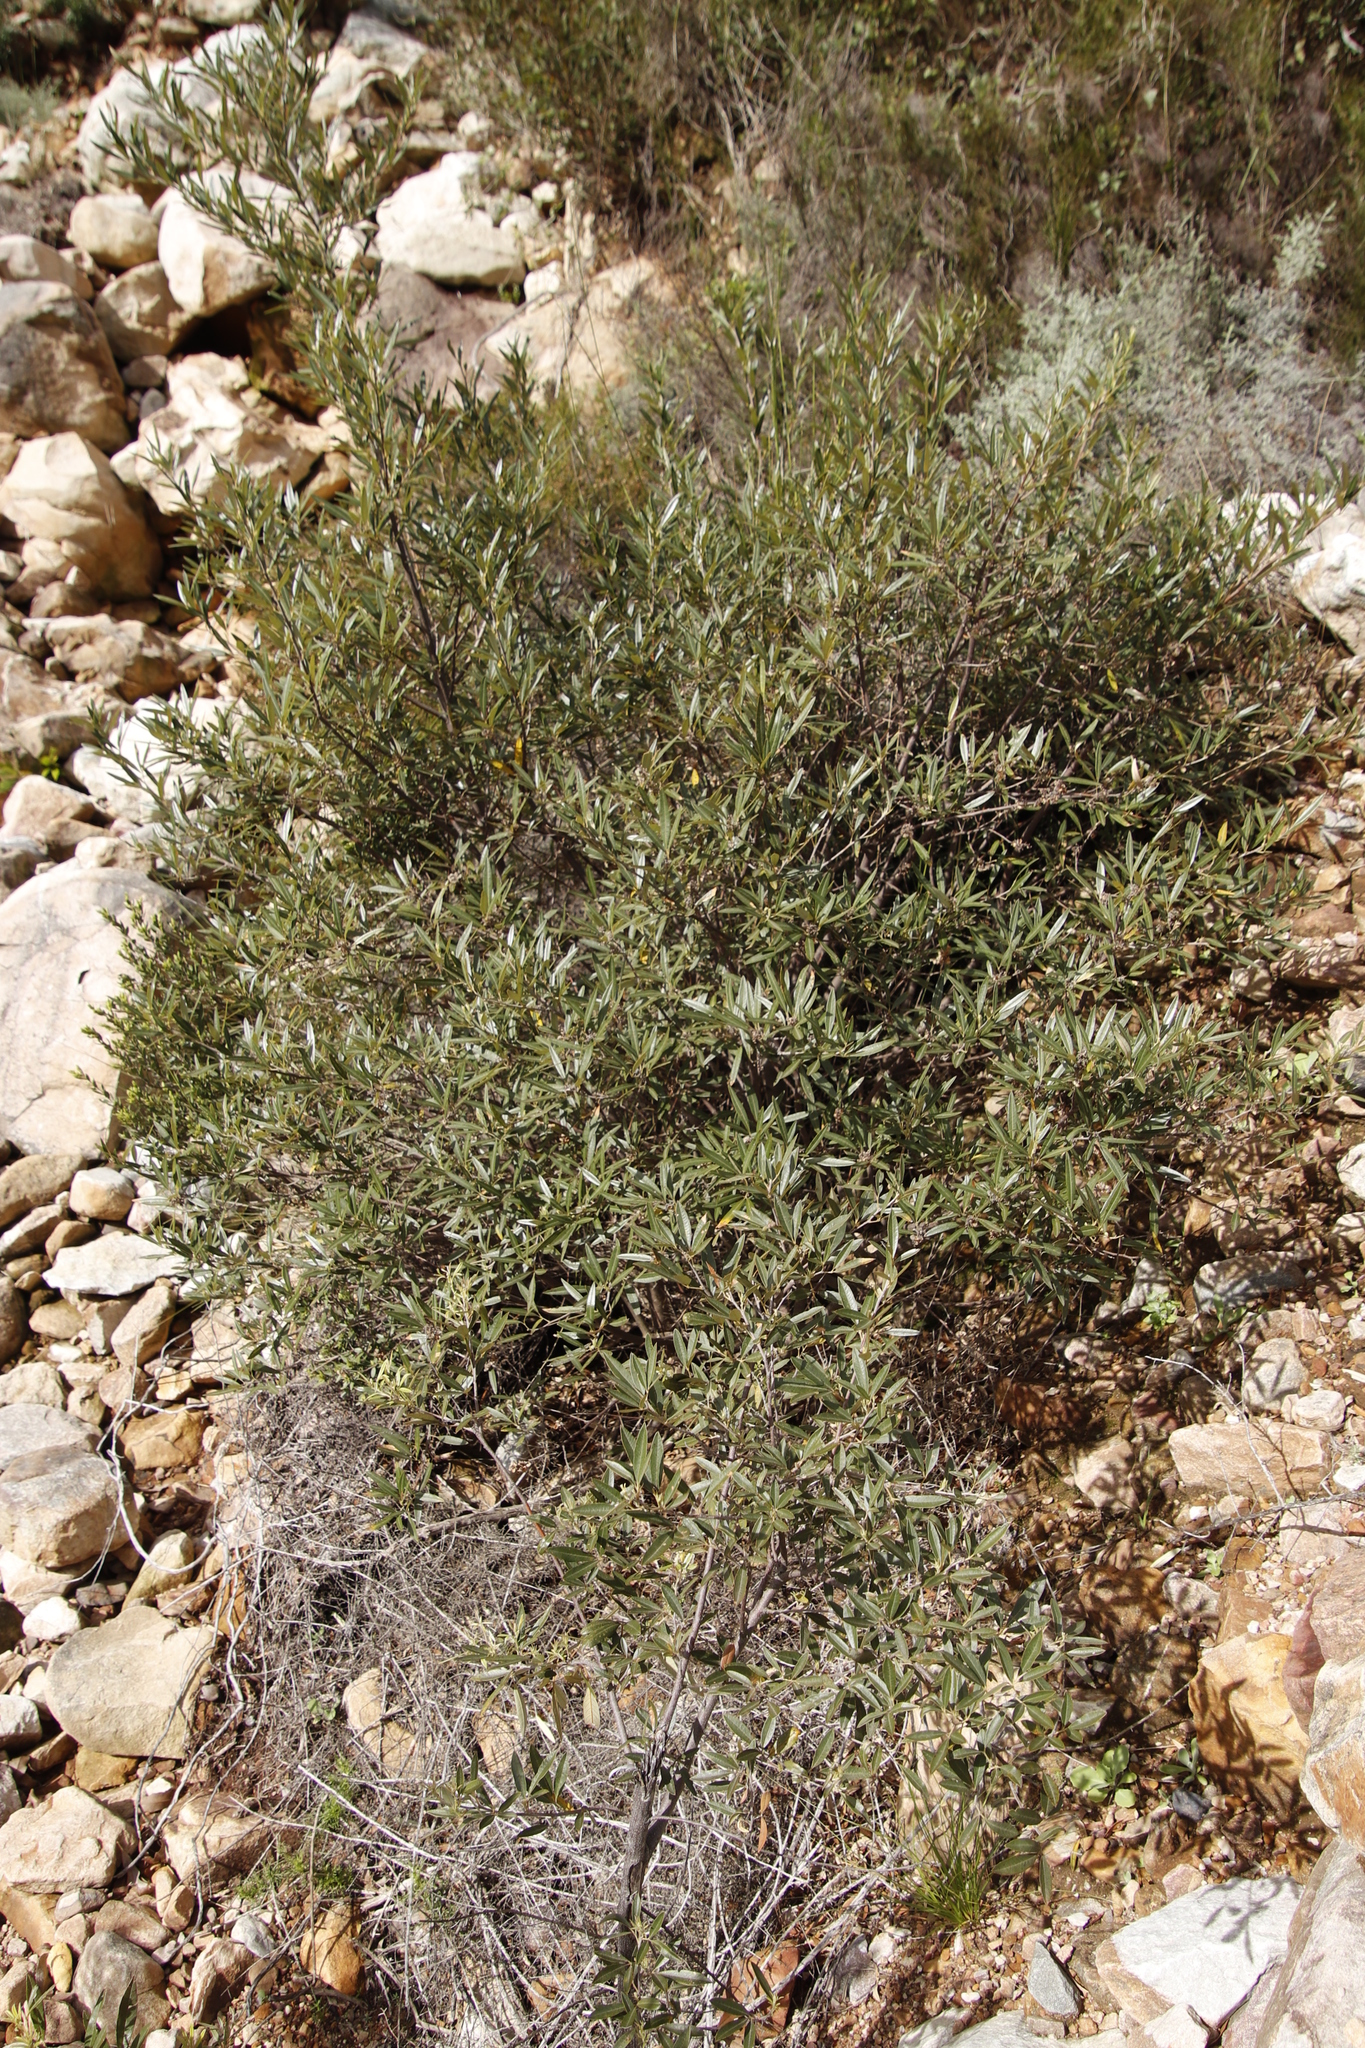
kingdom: Plantae
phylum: Tracheophyta
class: Magnoliopsida
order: Sapindales
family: Anacardiaceae
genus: Searsia
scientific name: Searsia angustifolia
